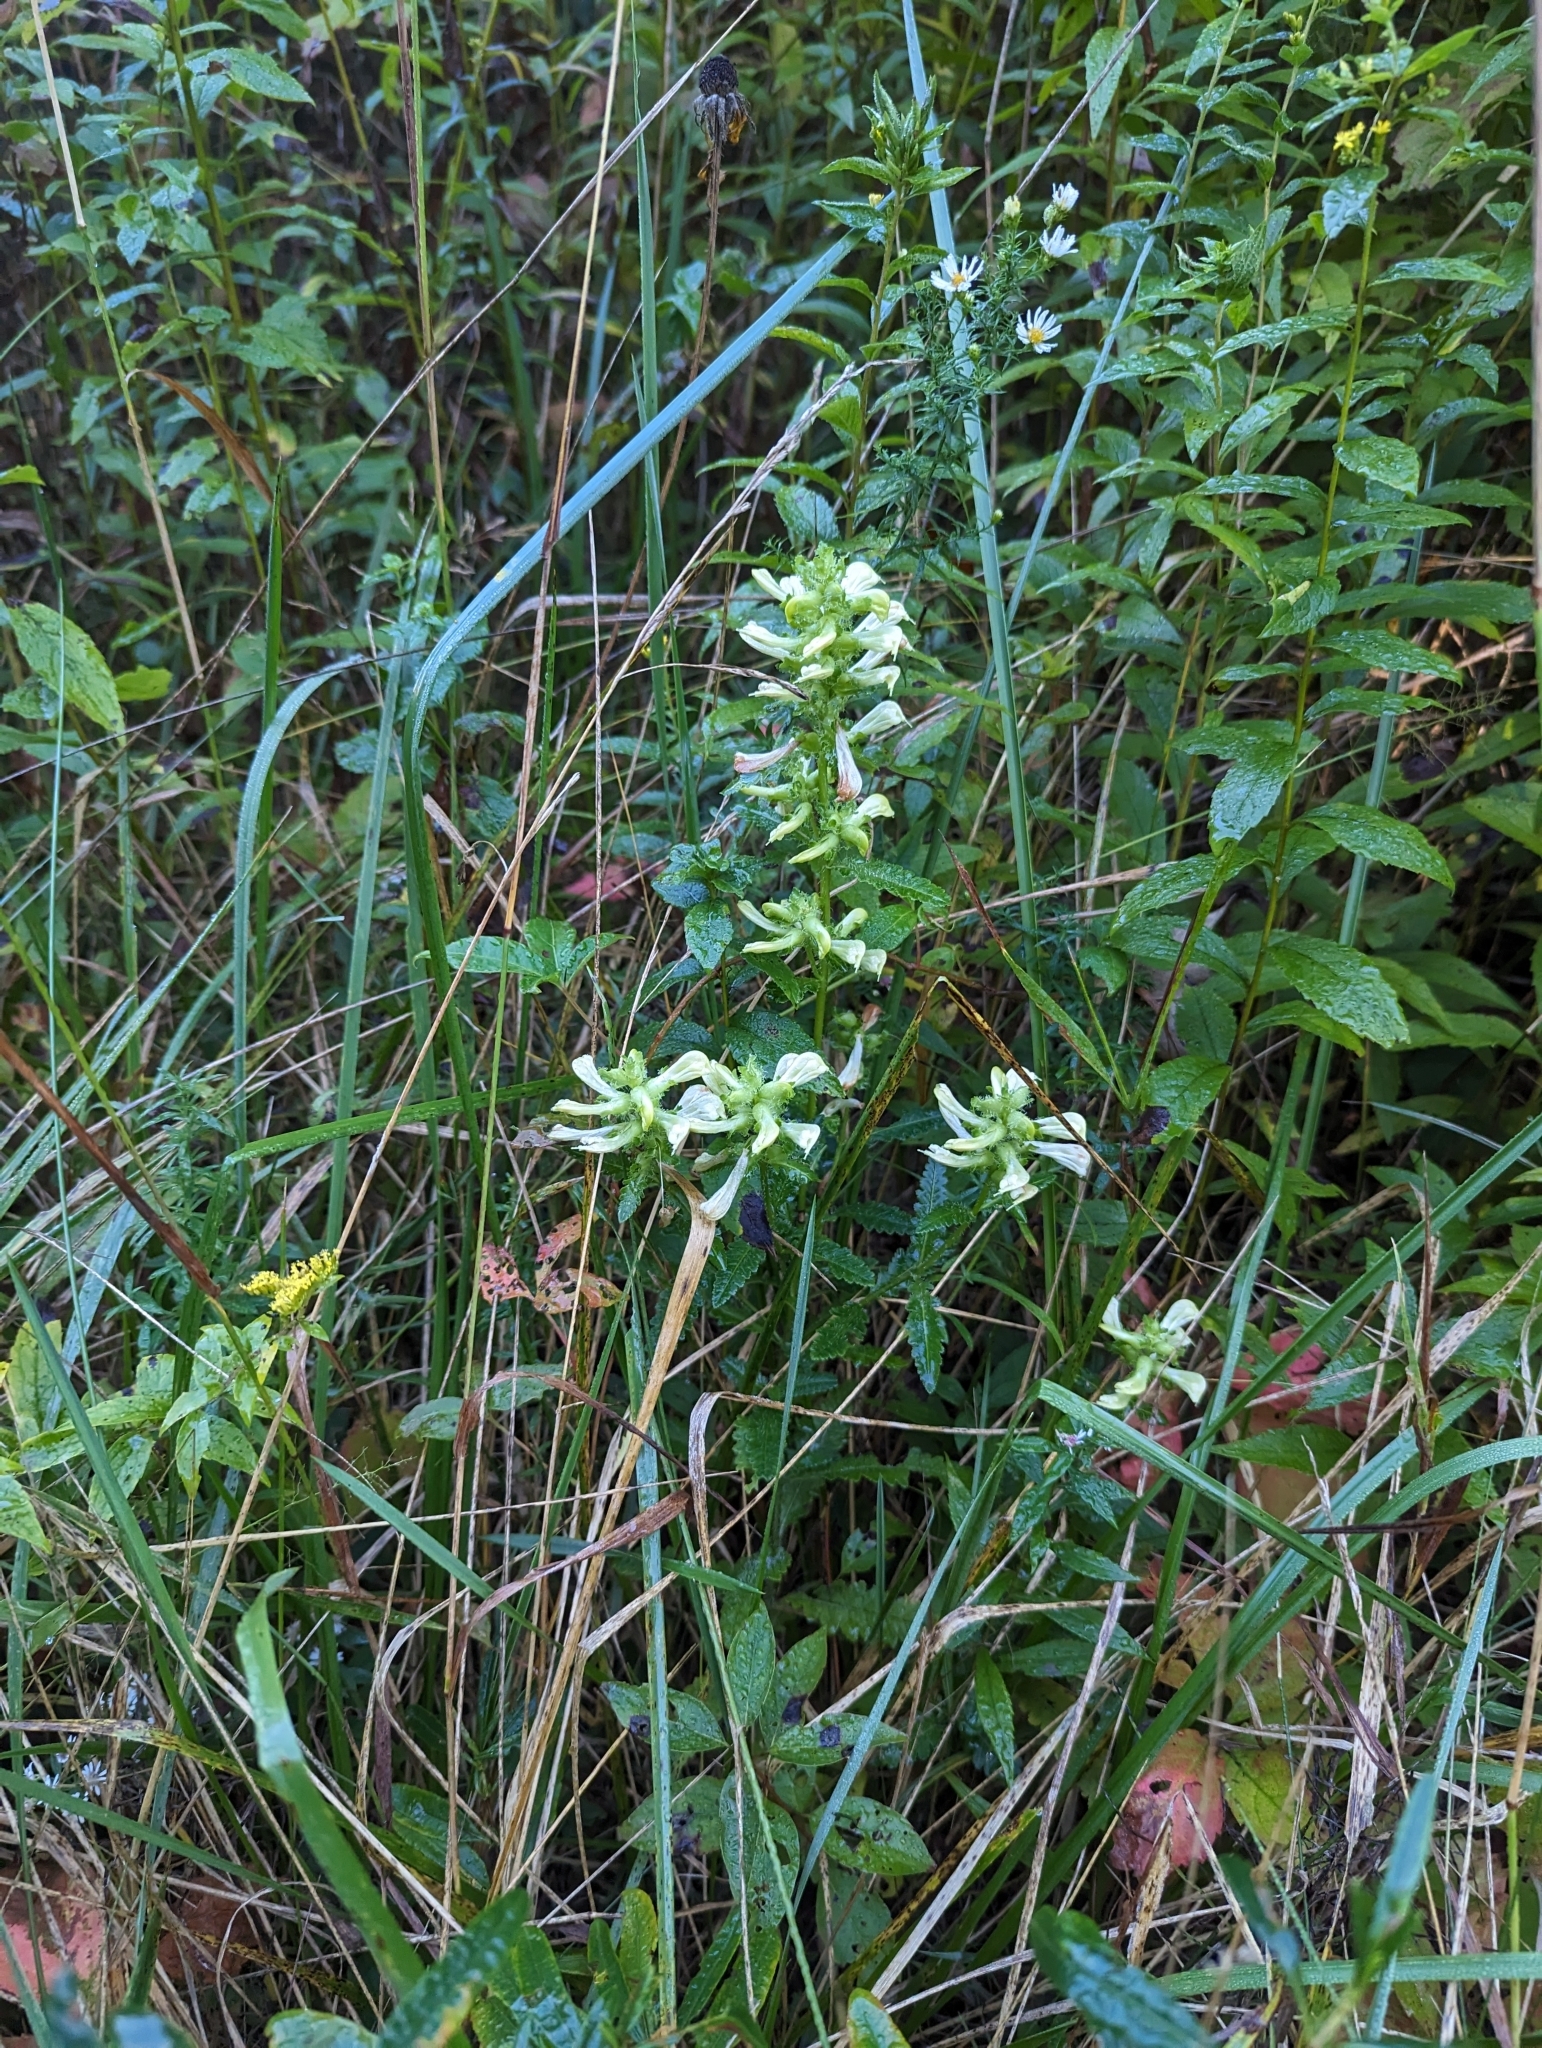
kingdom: Plantae
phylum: Tracheophyta
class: Magnoliopsida
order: Lamiales
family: Orobanchaceae
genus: Pedicularis
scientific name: Pedicularis lanceolata
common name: Swamp lousewort
